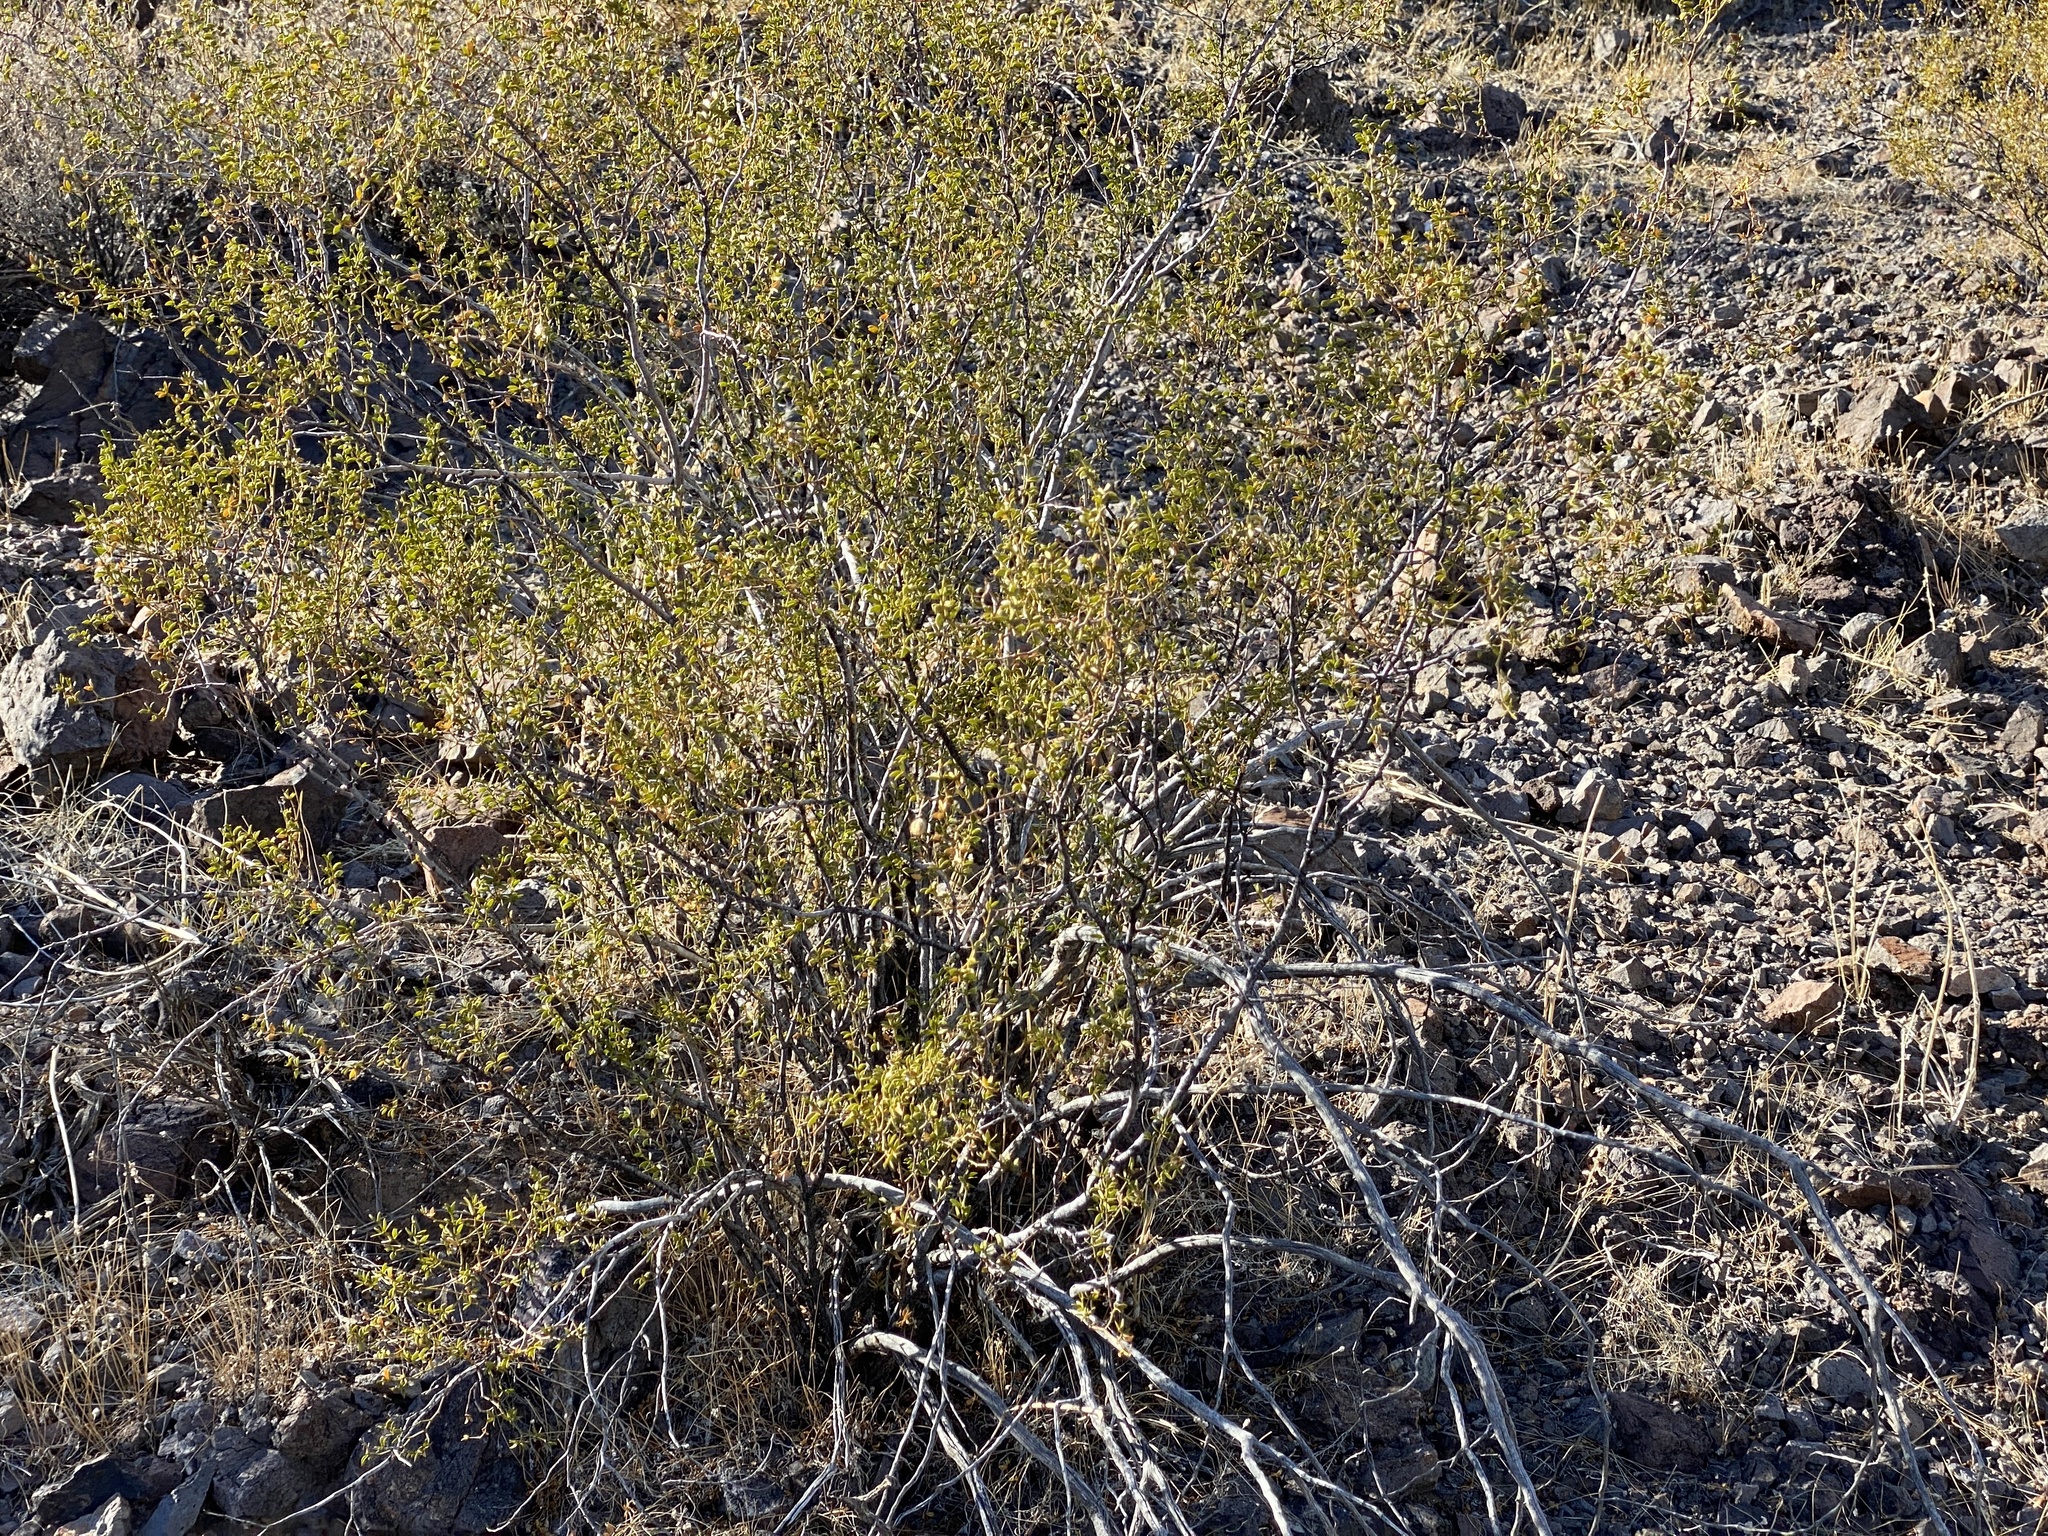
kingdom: Plantae
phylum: Tracheophyta
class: Magnoliopsida
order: Zygophyllales
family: Zygophyllaceae
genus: Larrea
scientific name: Larrea tridentata
